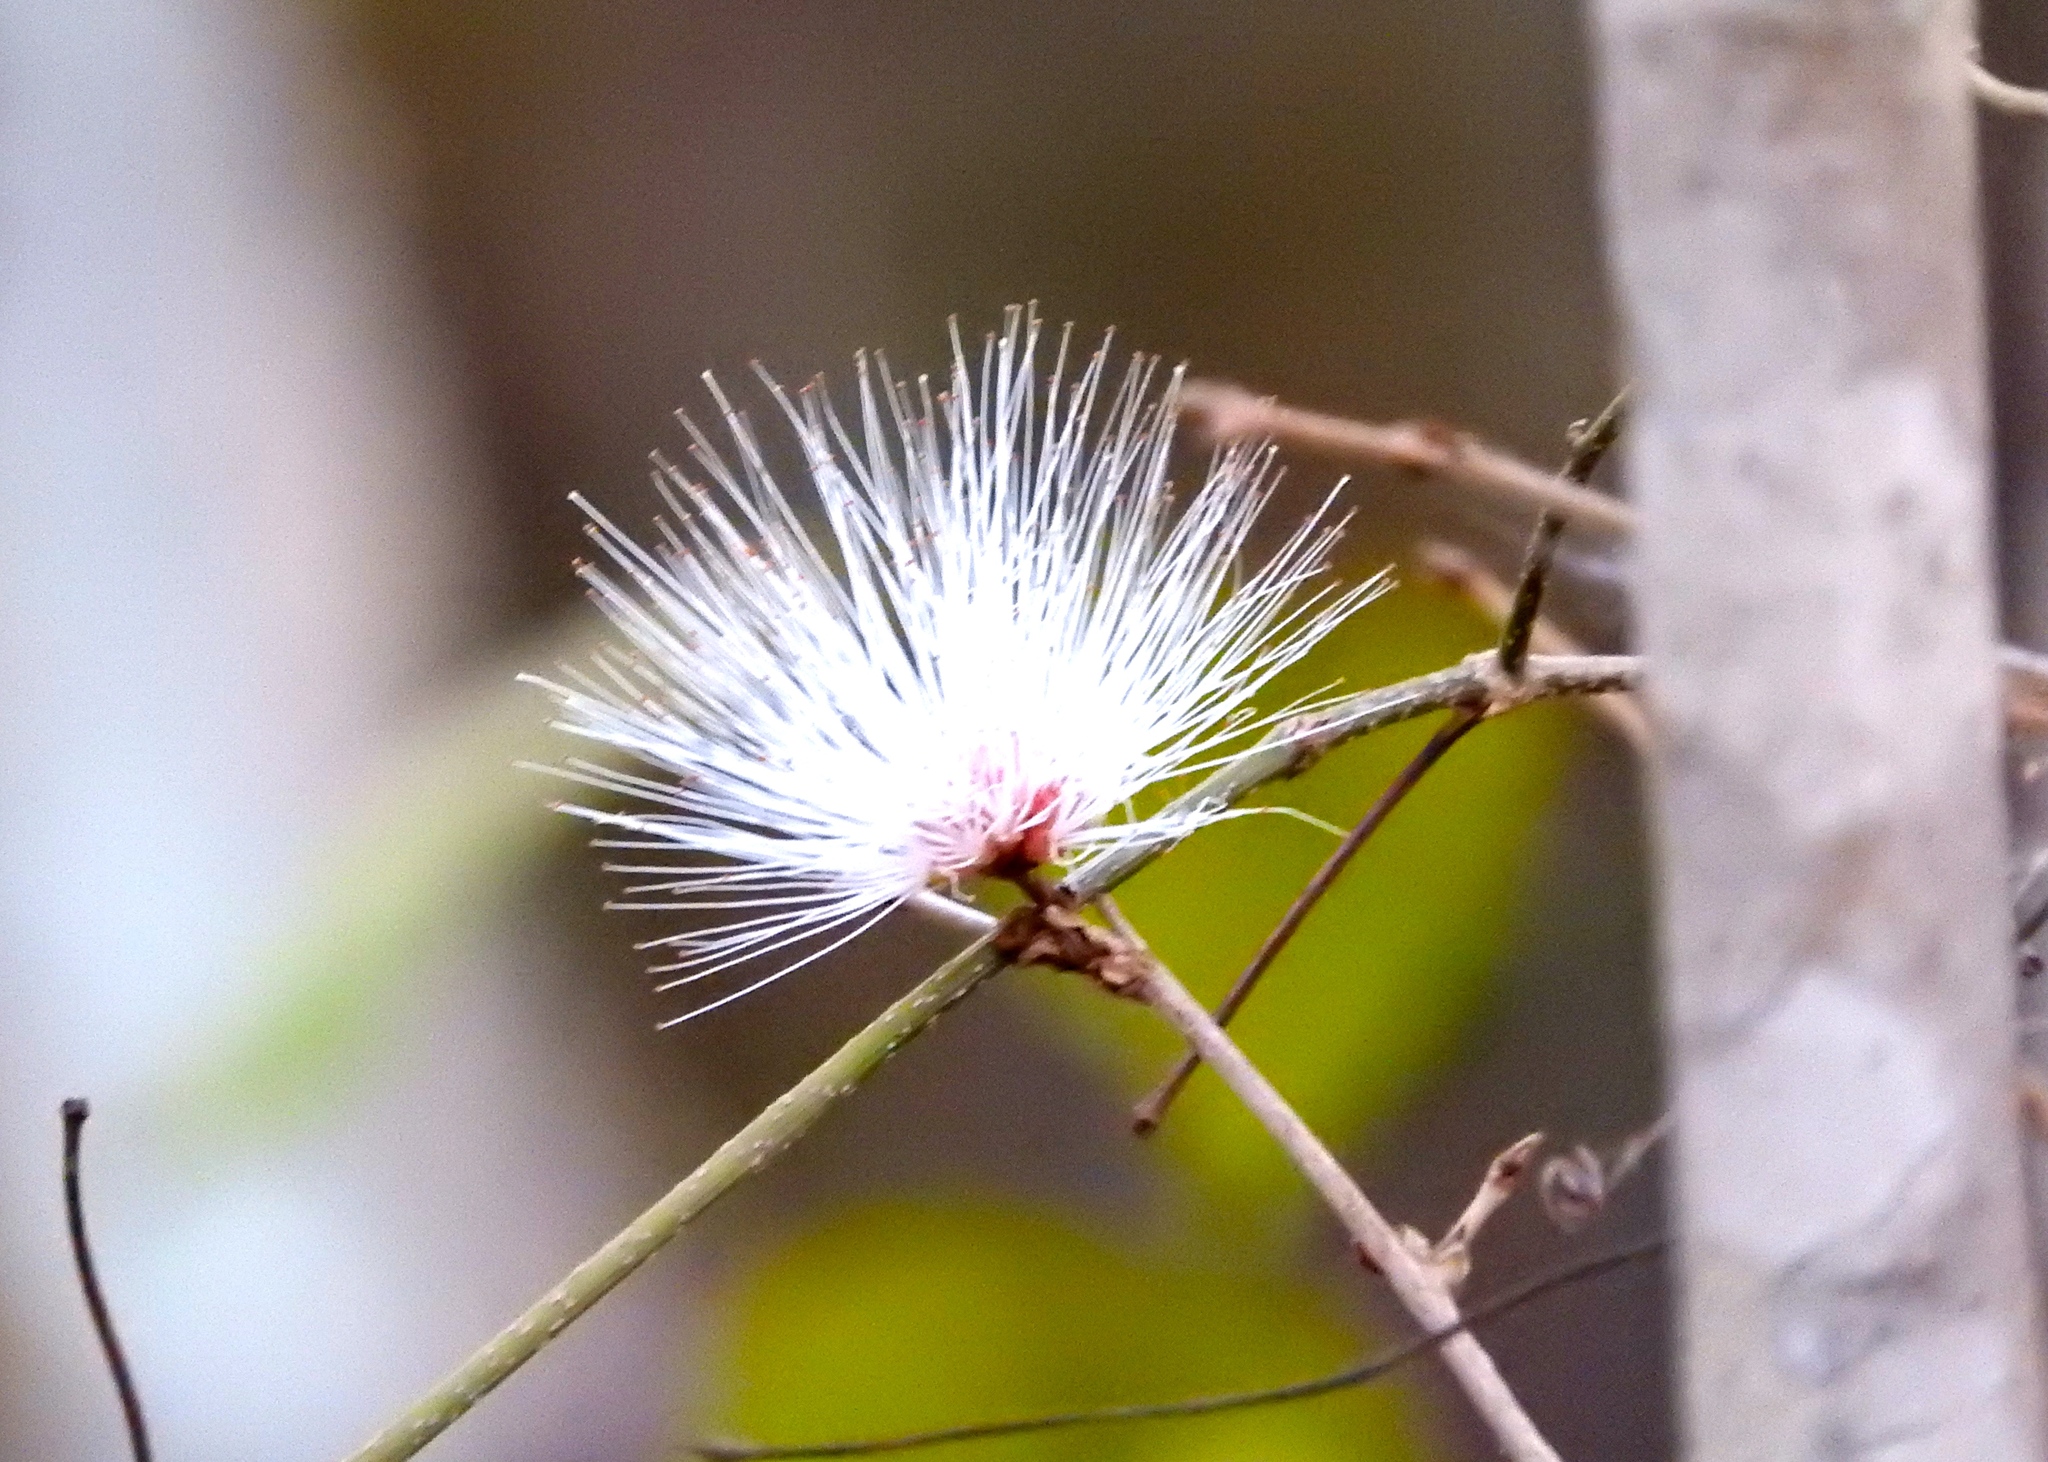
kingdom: Plantae
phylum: Tracheophyta
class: Magnoliopsida
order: Brassicales
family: Capparaceae
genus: Cynophalla
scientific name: Cynophalla flexuosa
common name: Capertree
